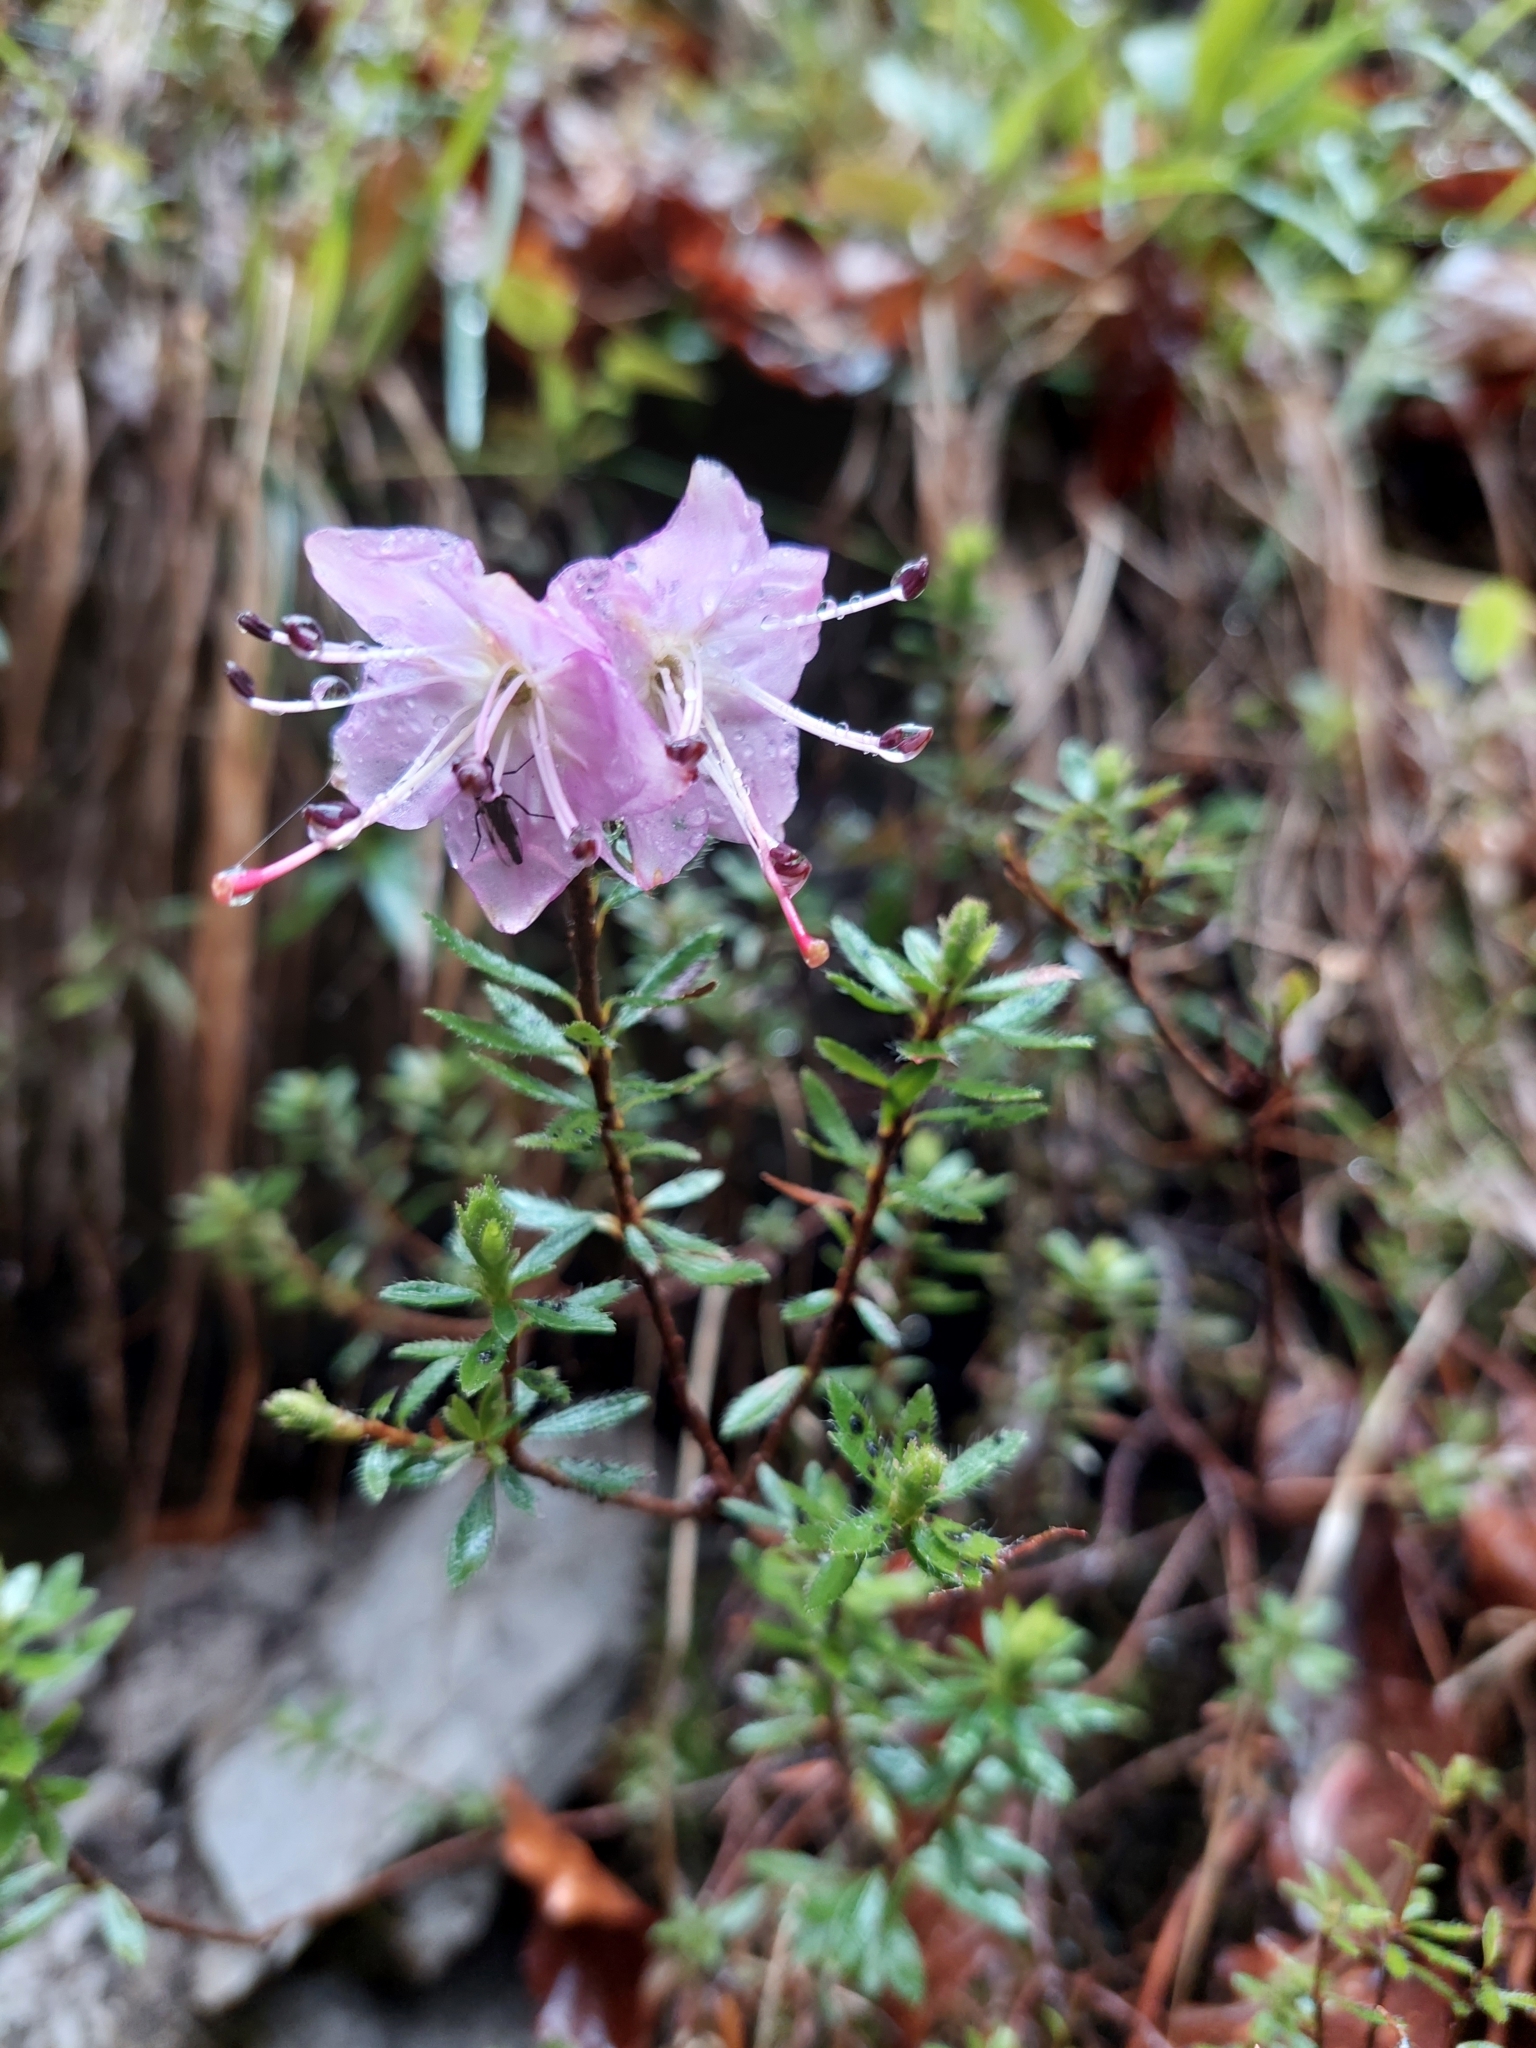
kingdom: Plantae
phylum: Tracheophyta
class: Magnoliopsida
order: Ericales
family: Ericaceae
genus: Rhodothamnus
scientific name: Rhodothamnus chamaecistus
